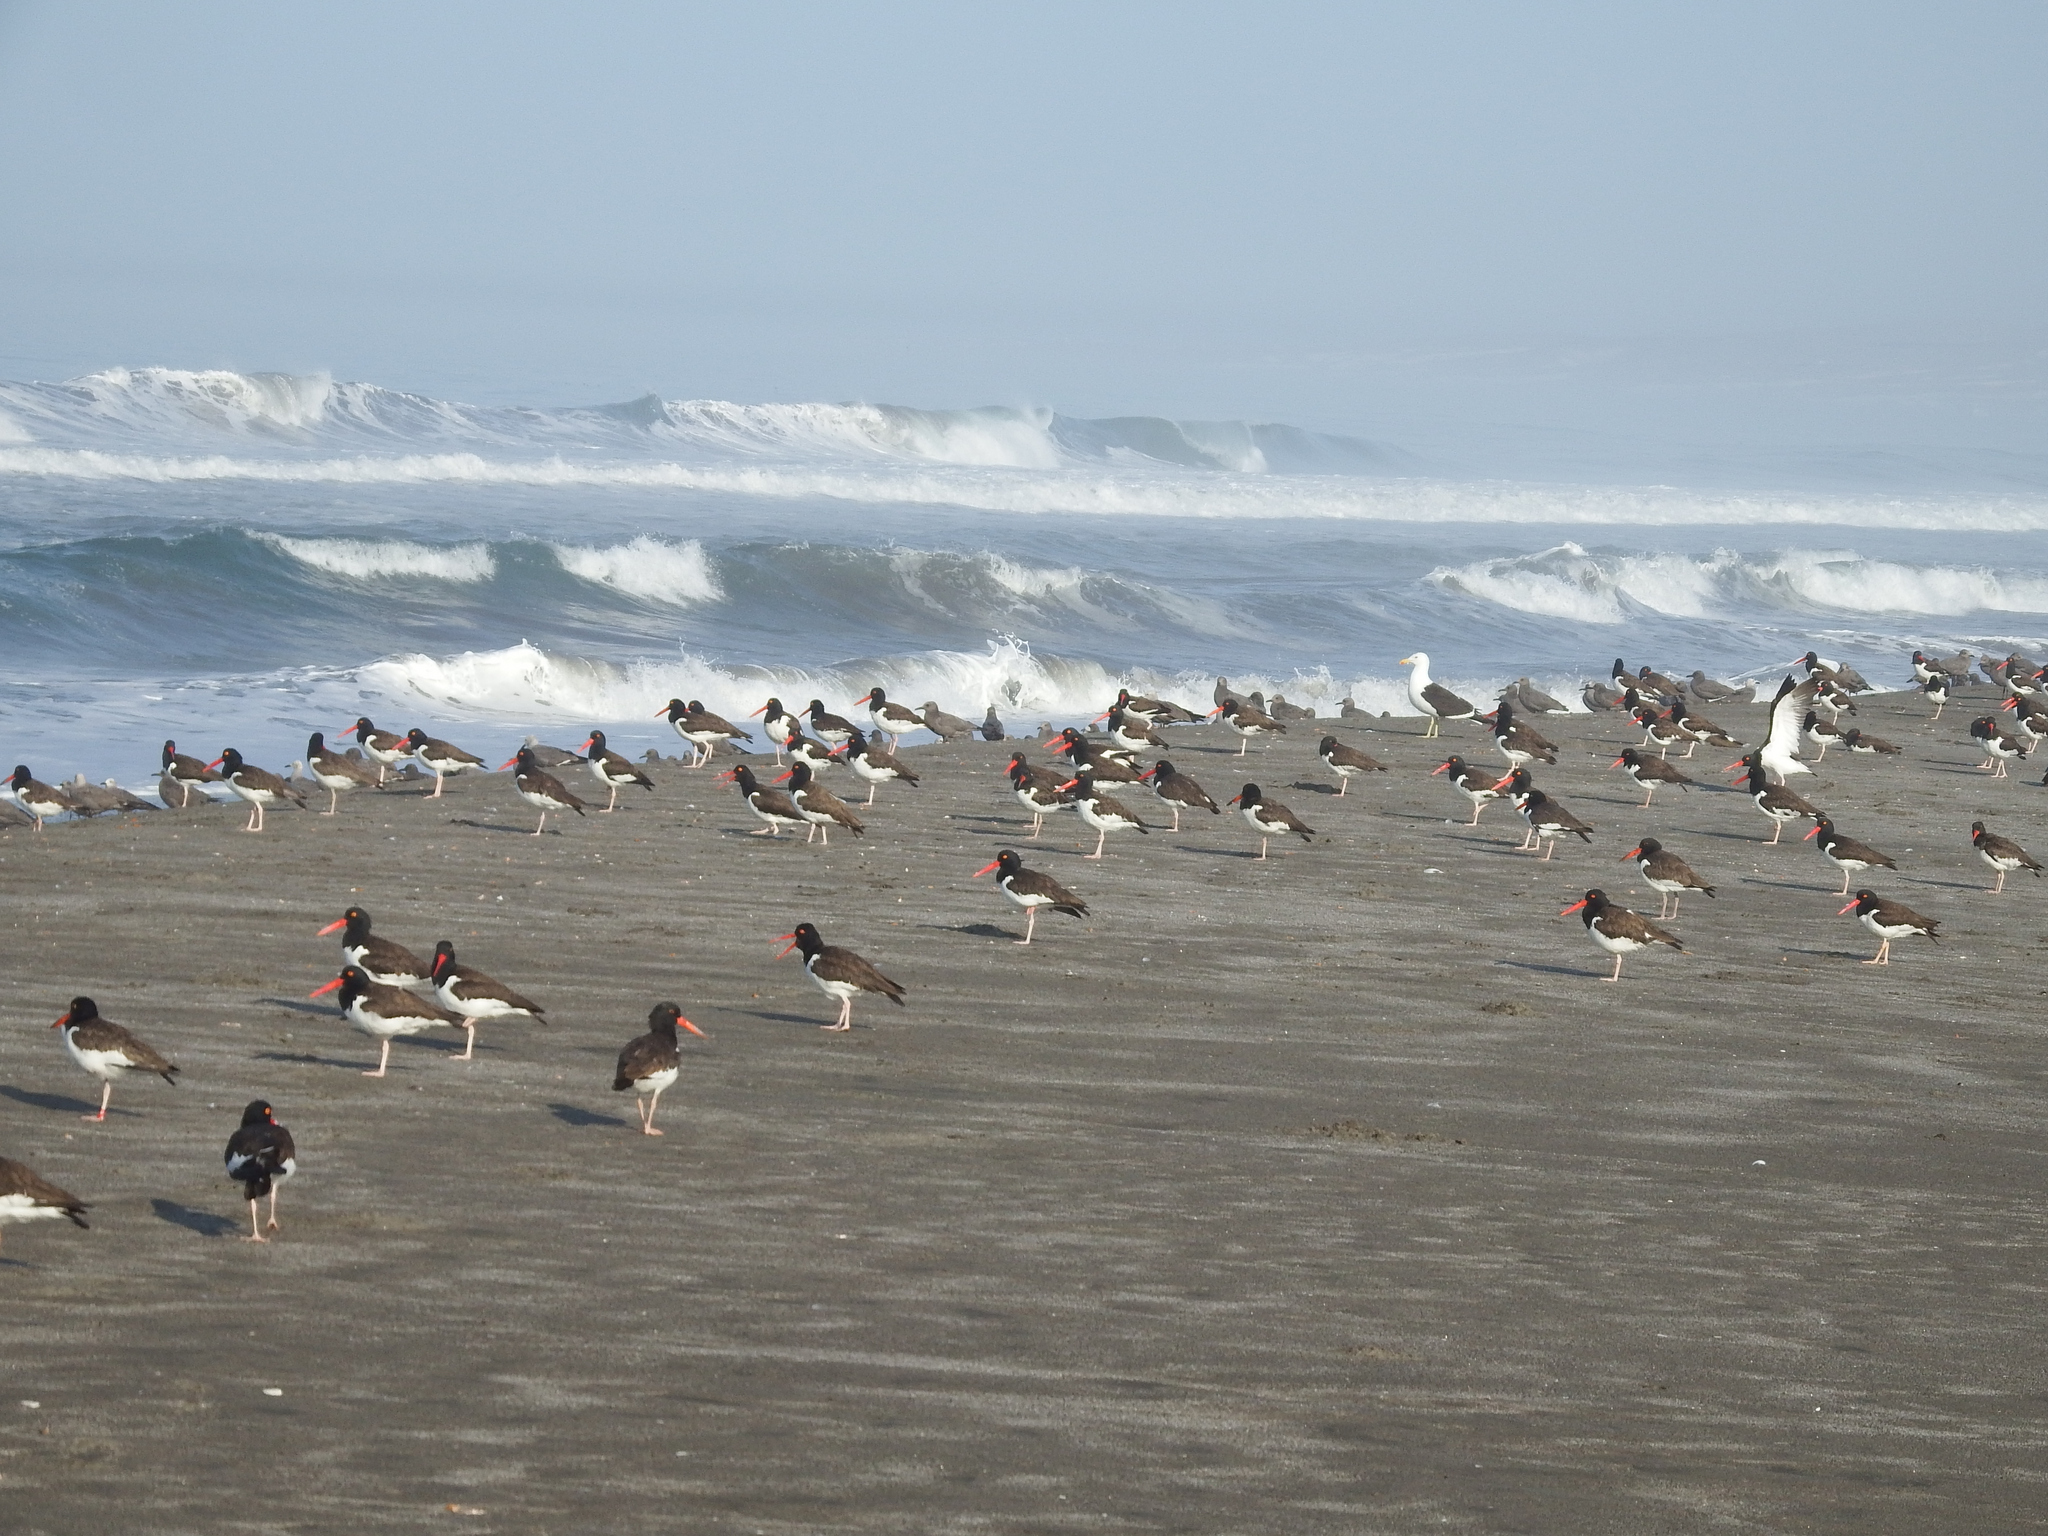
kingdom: Animalia
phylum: Chordata
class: Aves
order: Charadriiformes
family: Haematopodidae
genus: Haematopus
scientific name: Haematopus palliatus
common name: American oystercatcher
